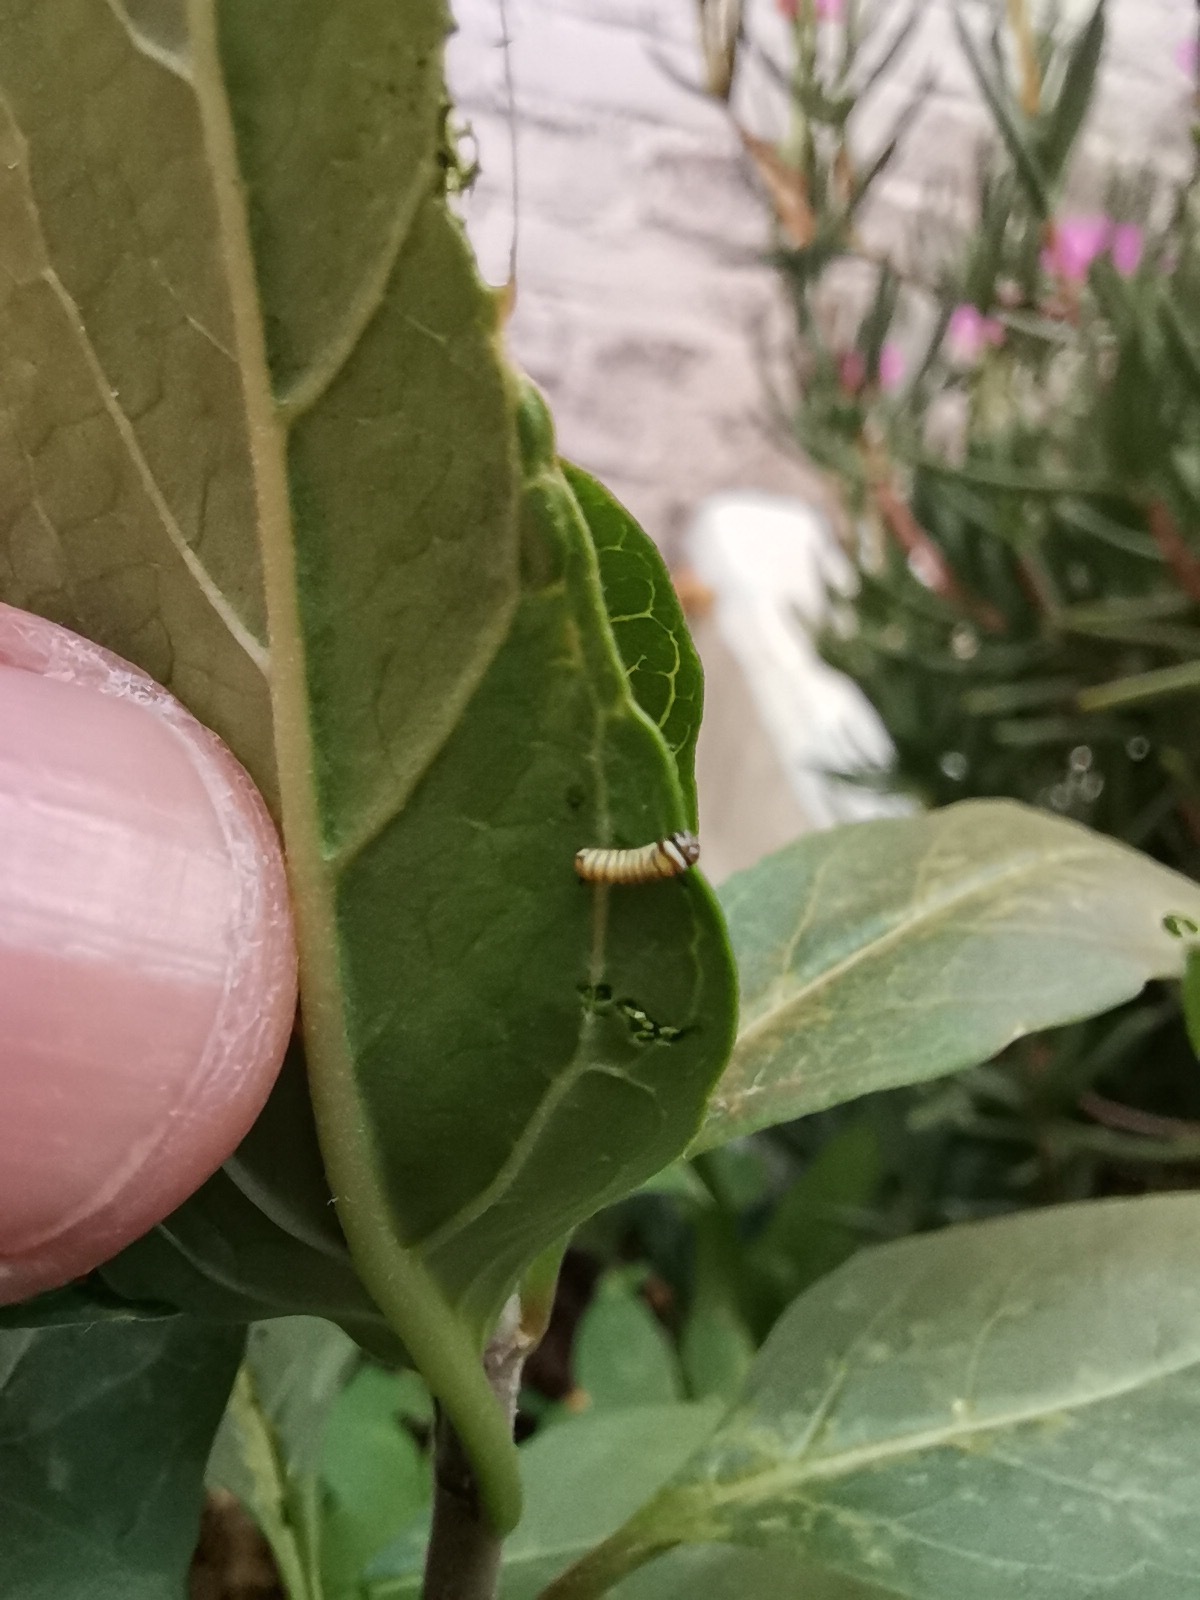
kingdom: Animalia
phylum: Arthropoda
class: Insecta
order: Lepidoptera
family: Nymphalidae
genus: Danaus
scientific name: Danaus plexippus
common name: Monarch
